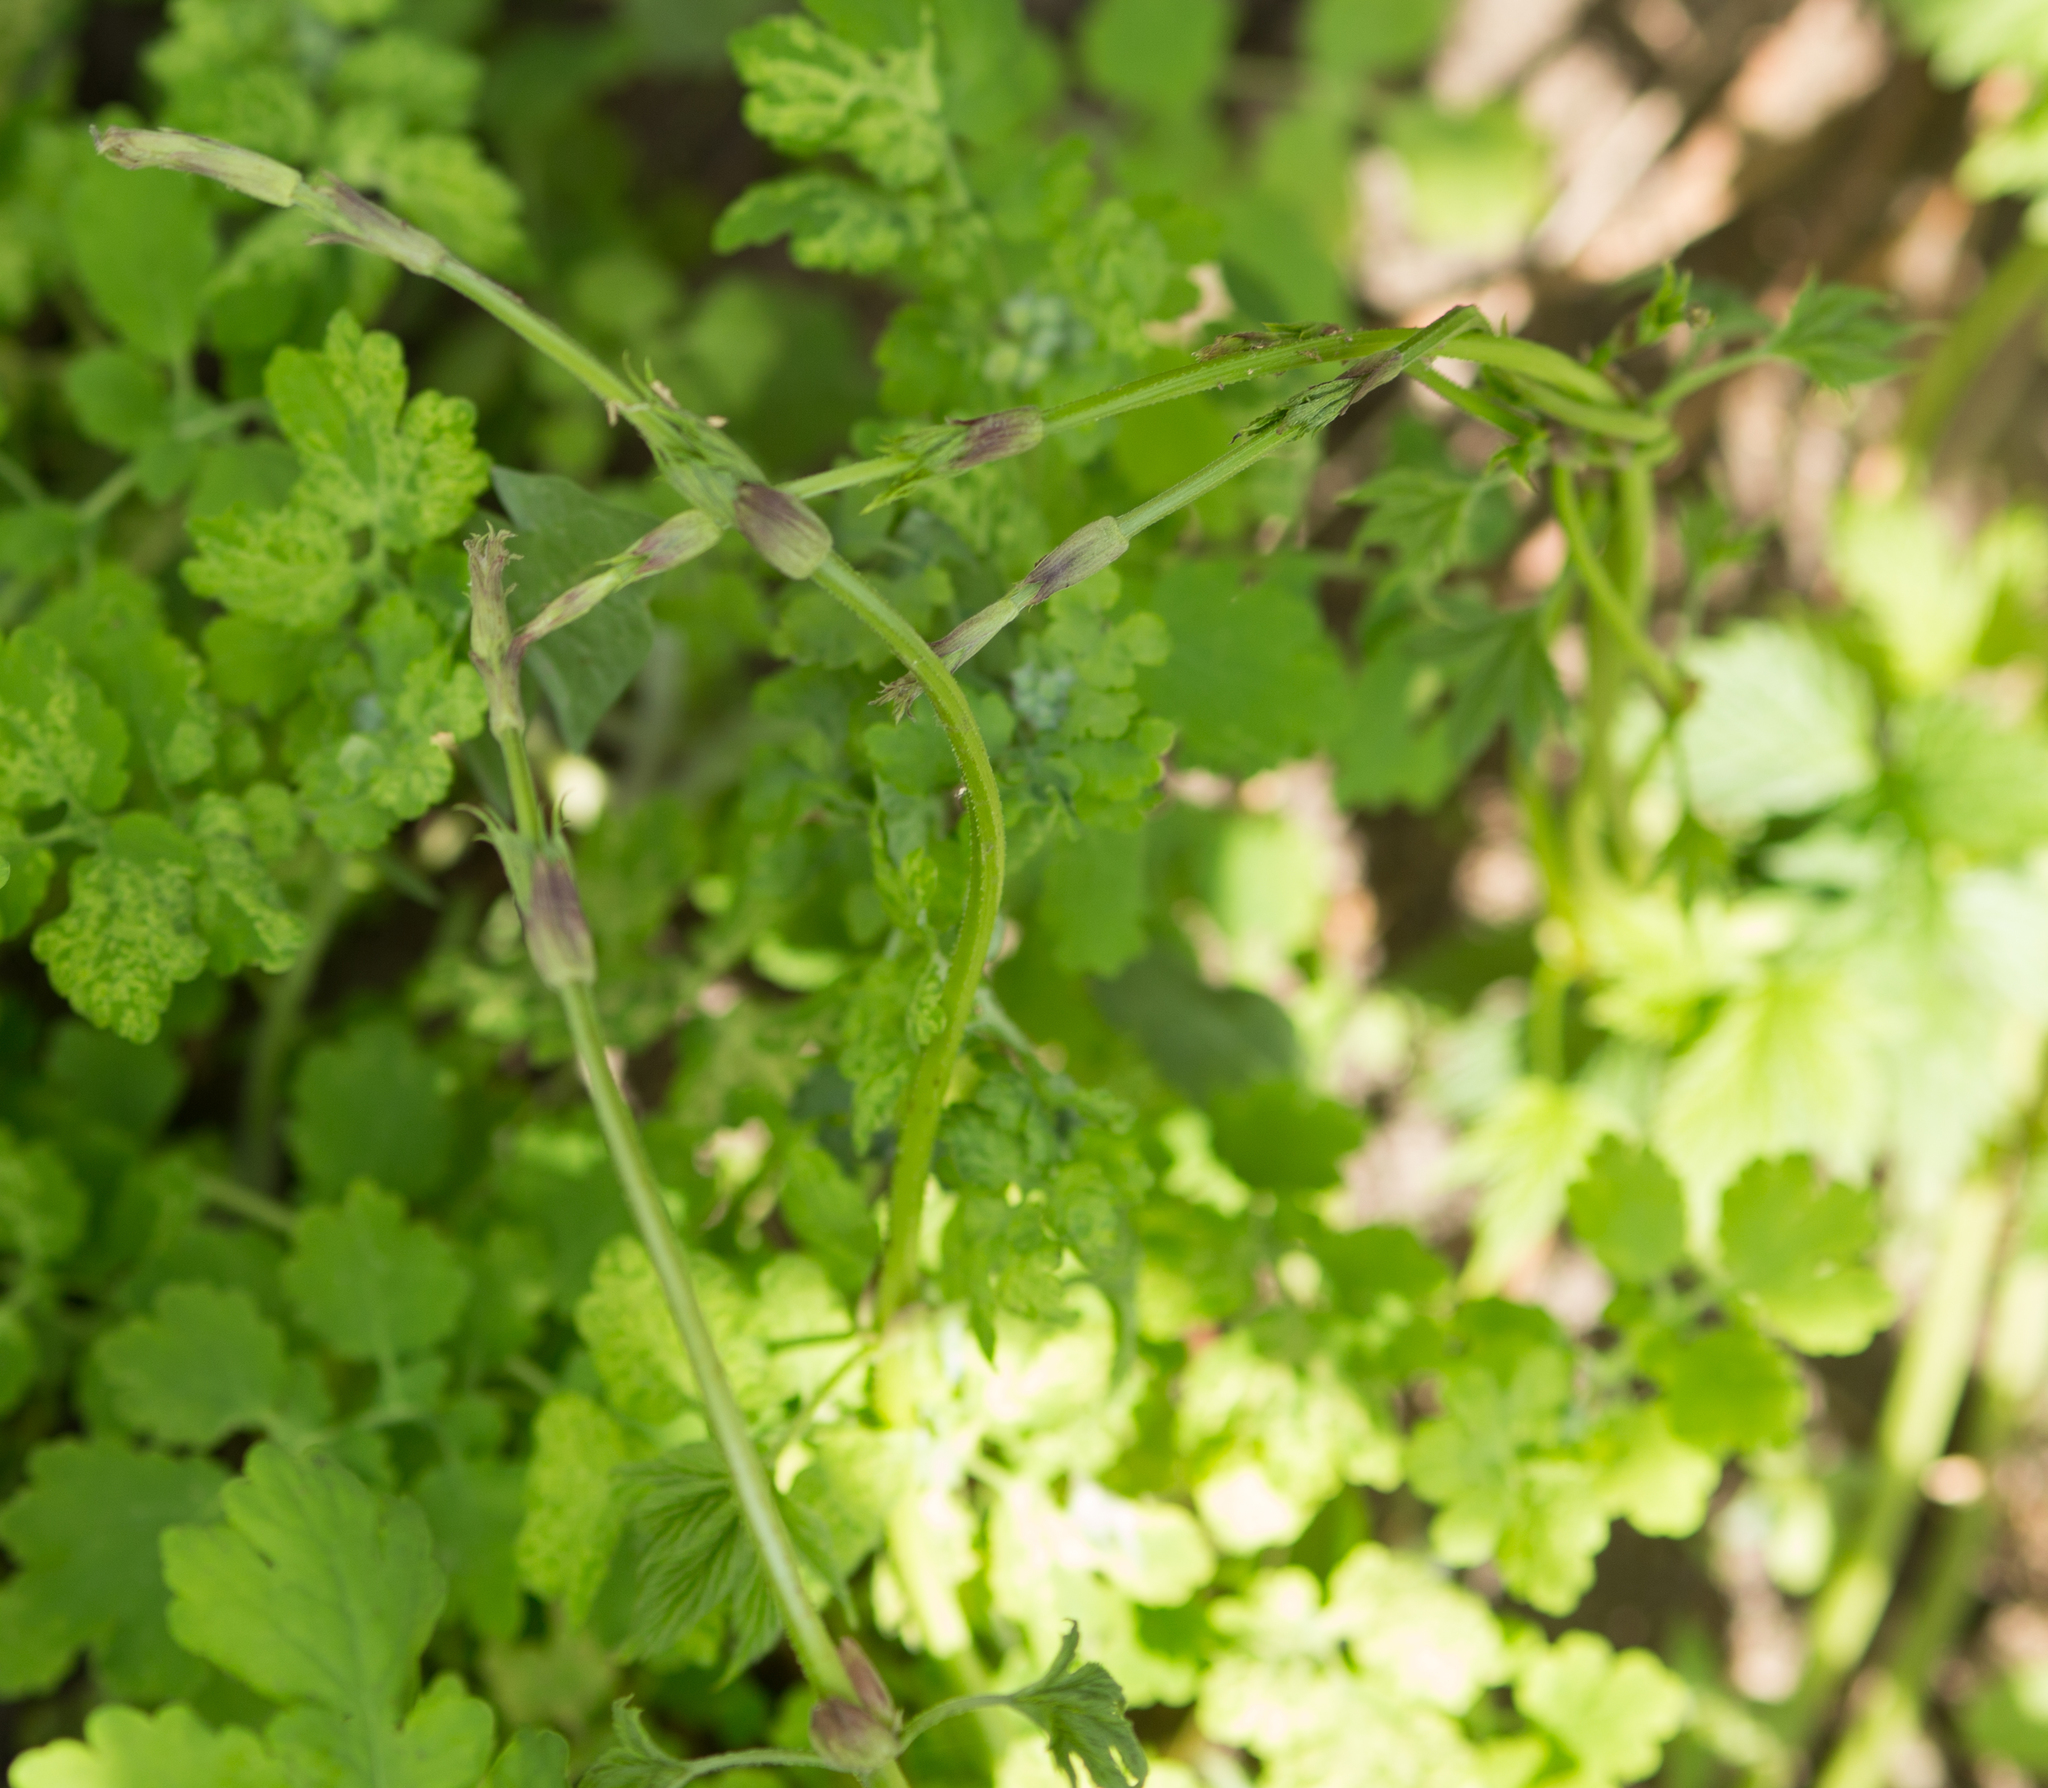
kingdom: Plantae
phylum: Tracheophyta
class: Magnoliopsida
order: Rosales
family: Cannabaceae
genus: Humulus
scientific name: Humulus lupulus
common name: Hop
